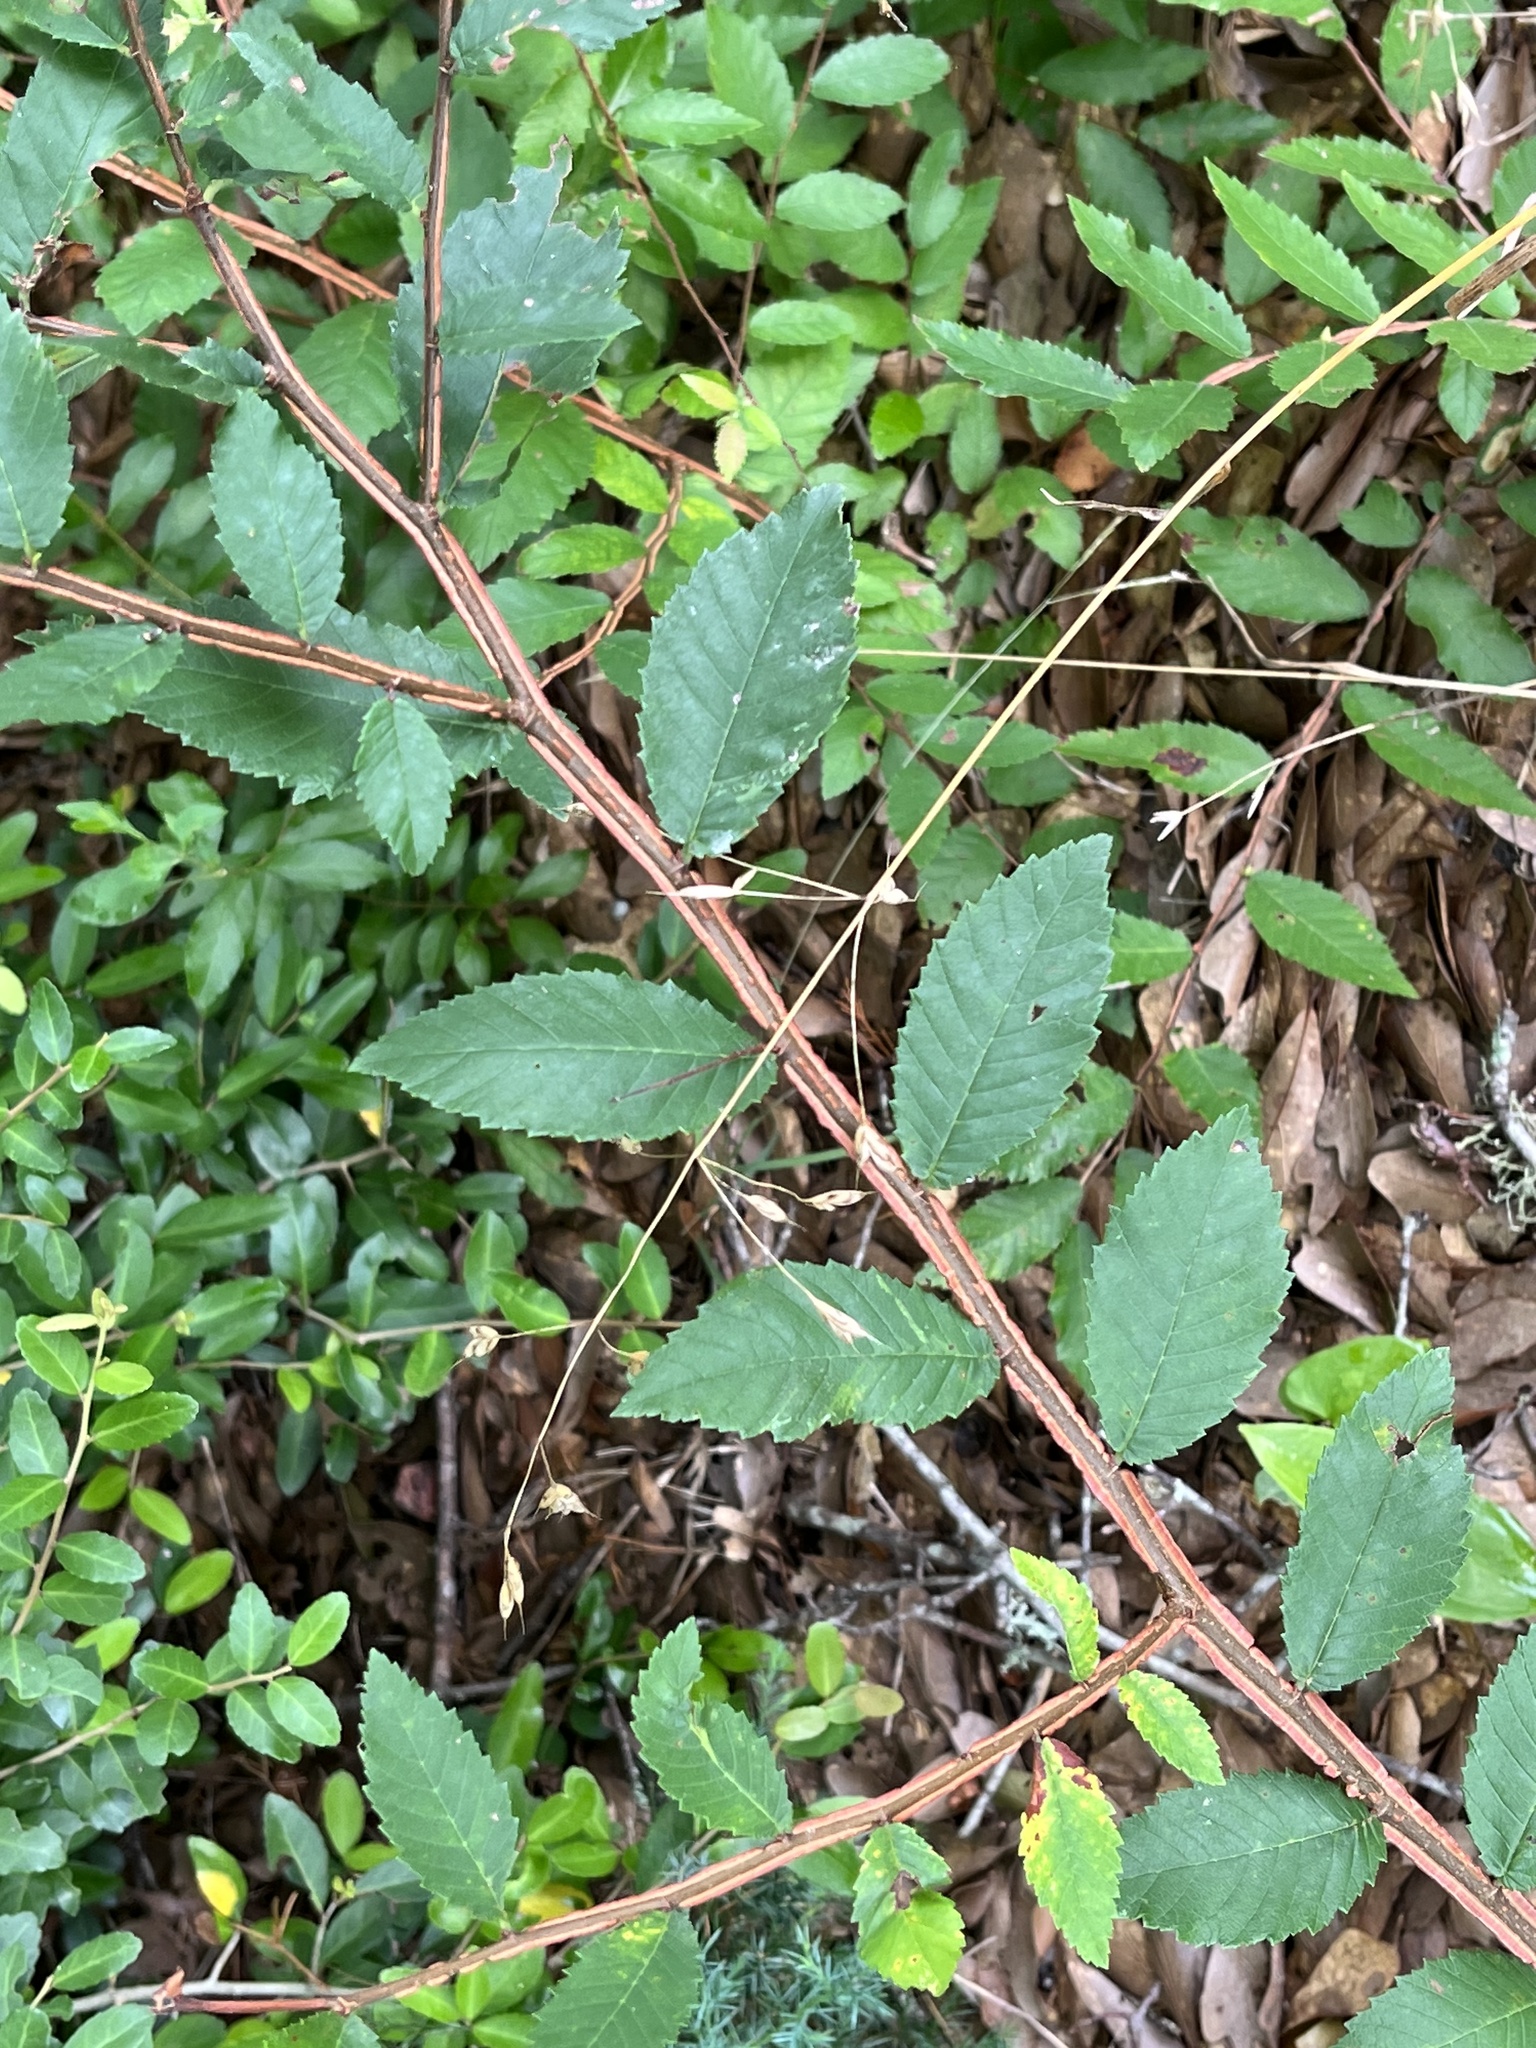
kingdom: Plantae
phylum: Tracheophyta
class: Magnoliopsida
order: Rosales
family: Ulmaceae
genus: Ulmus
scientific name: Ulmus alata
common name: Winged elm
